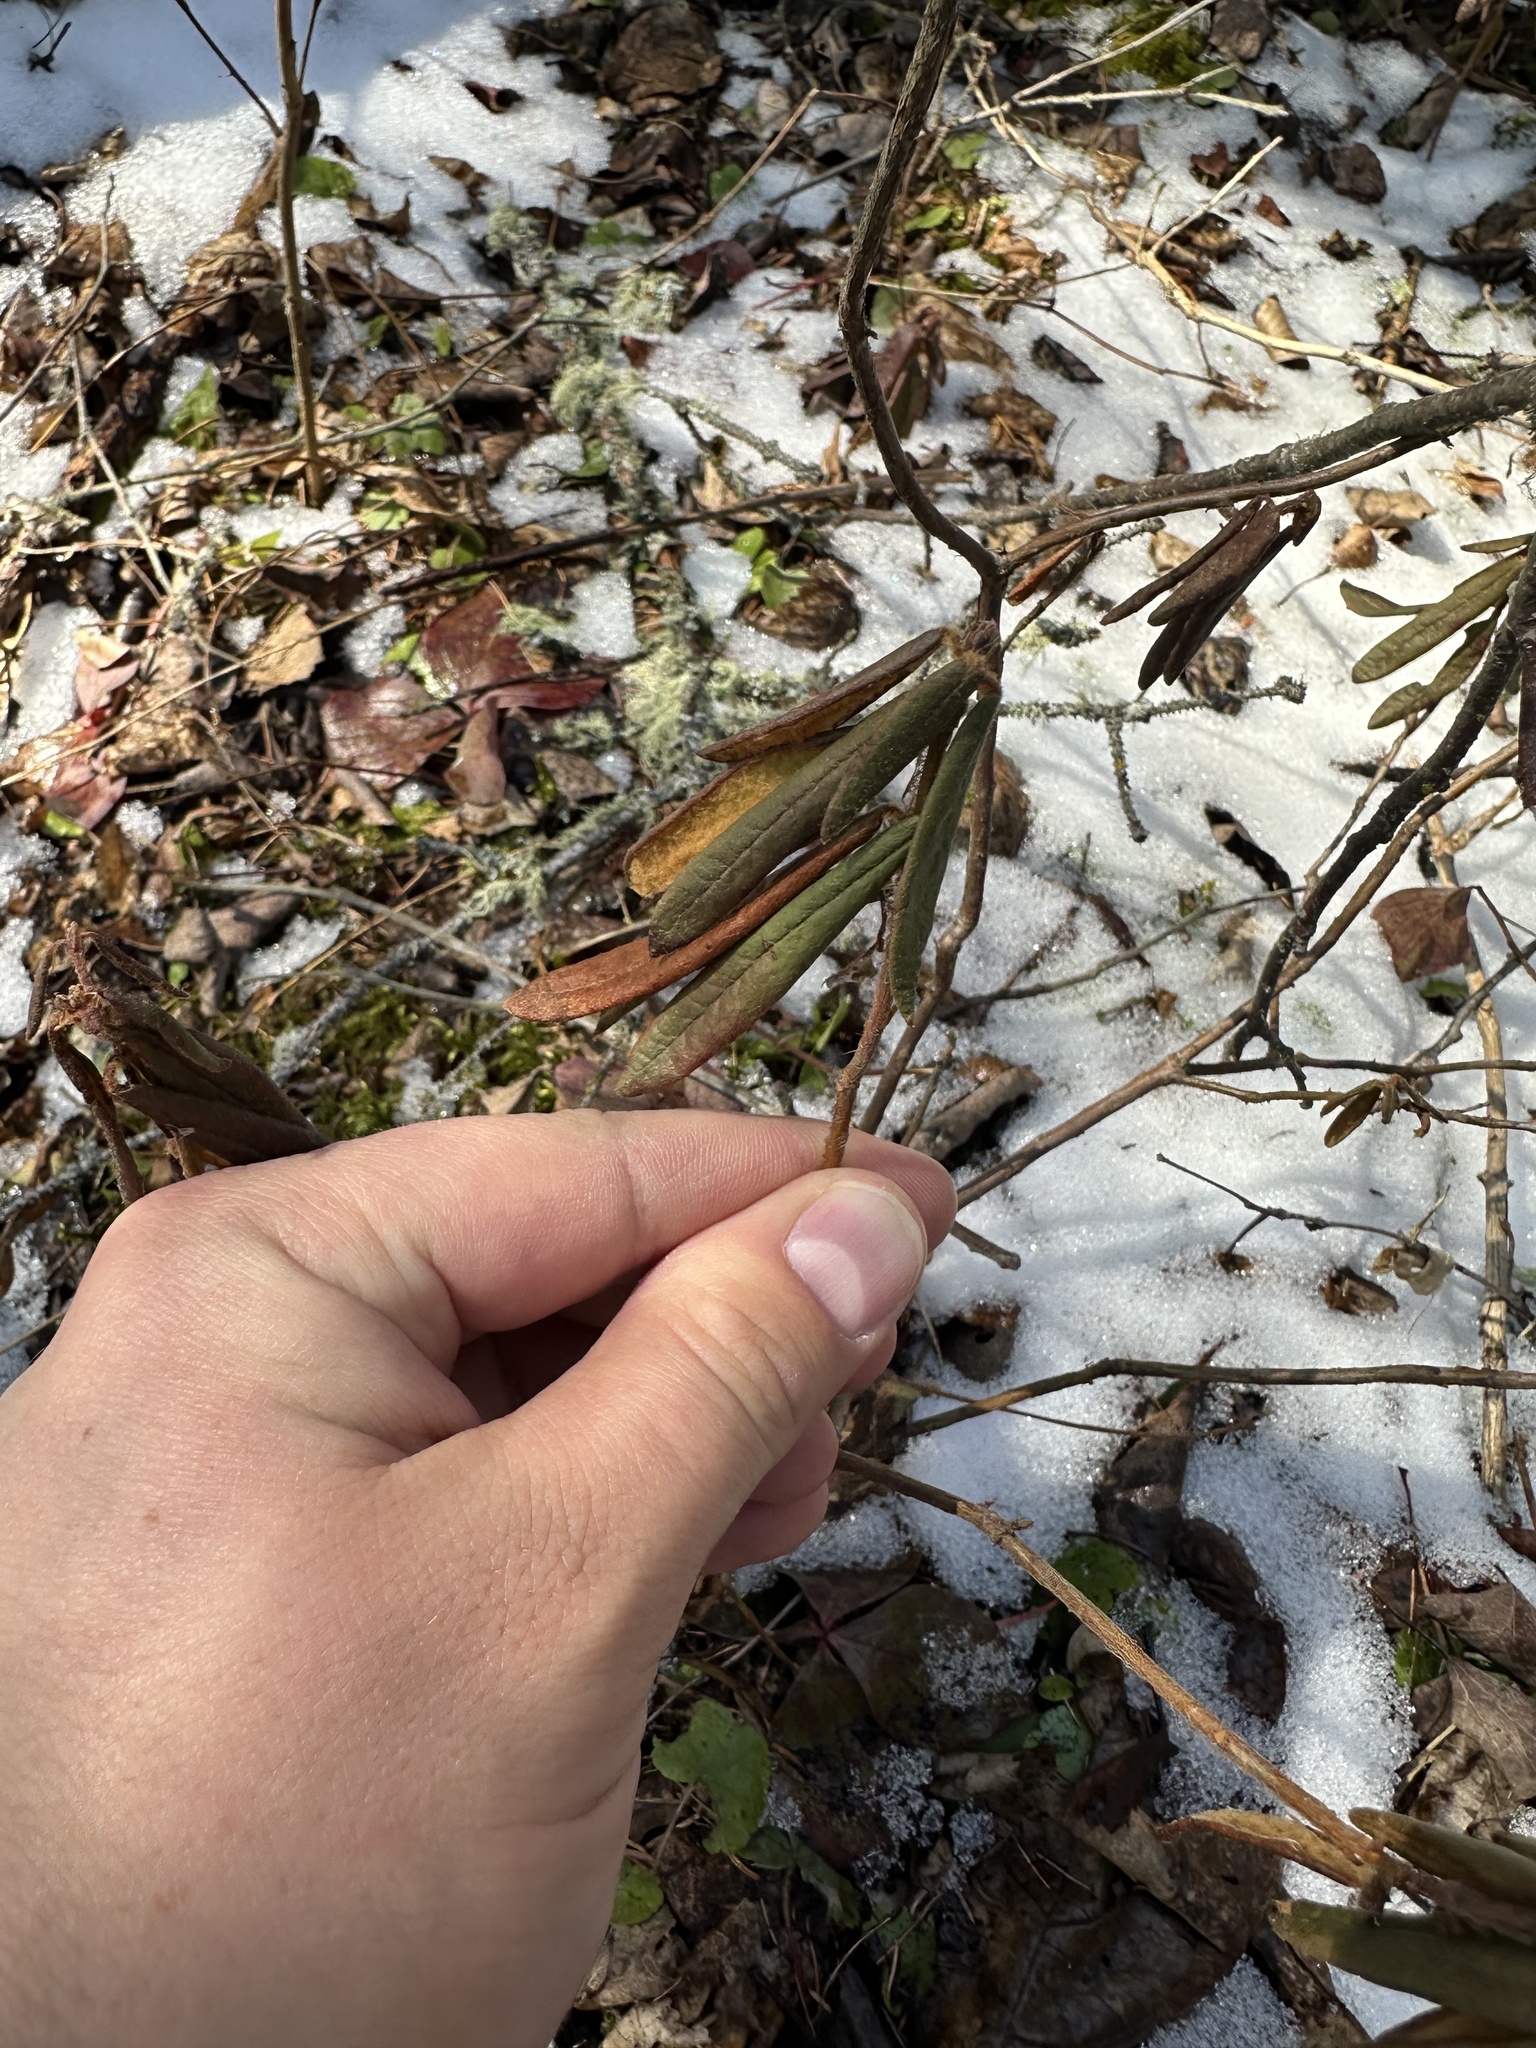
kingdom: Plantae
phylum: Tracheophyta
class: Magnoliopsida
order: Ericales
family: Ericaceae
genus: Rhododendron
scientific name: Rhododendron groenlandicum
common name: Bog labrador tea
